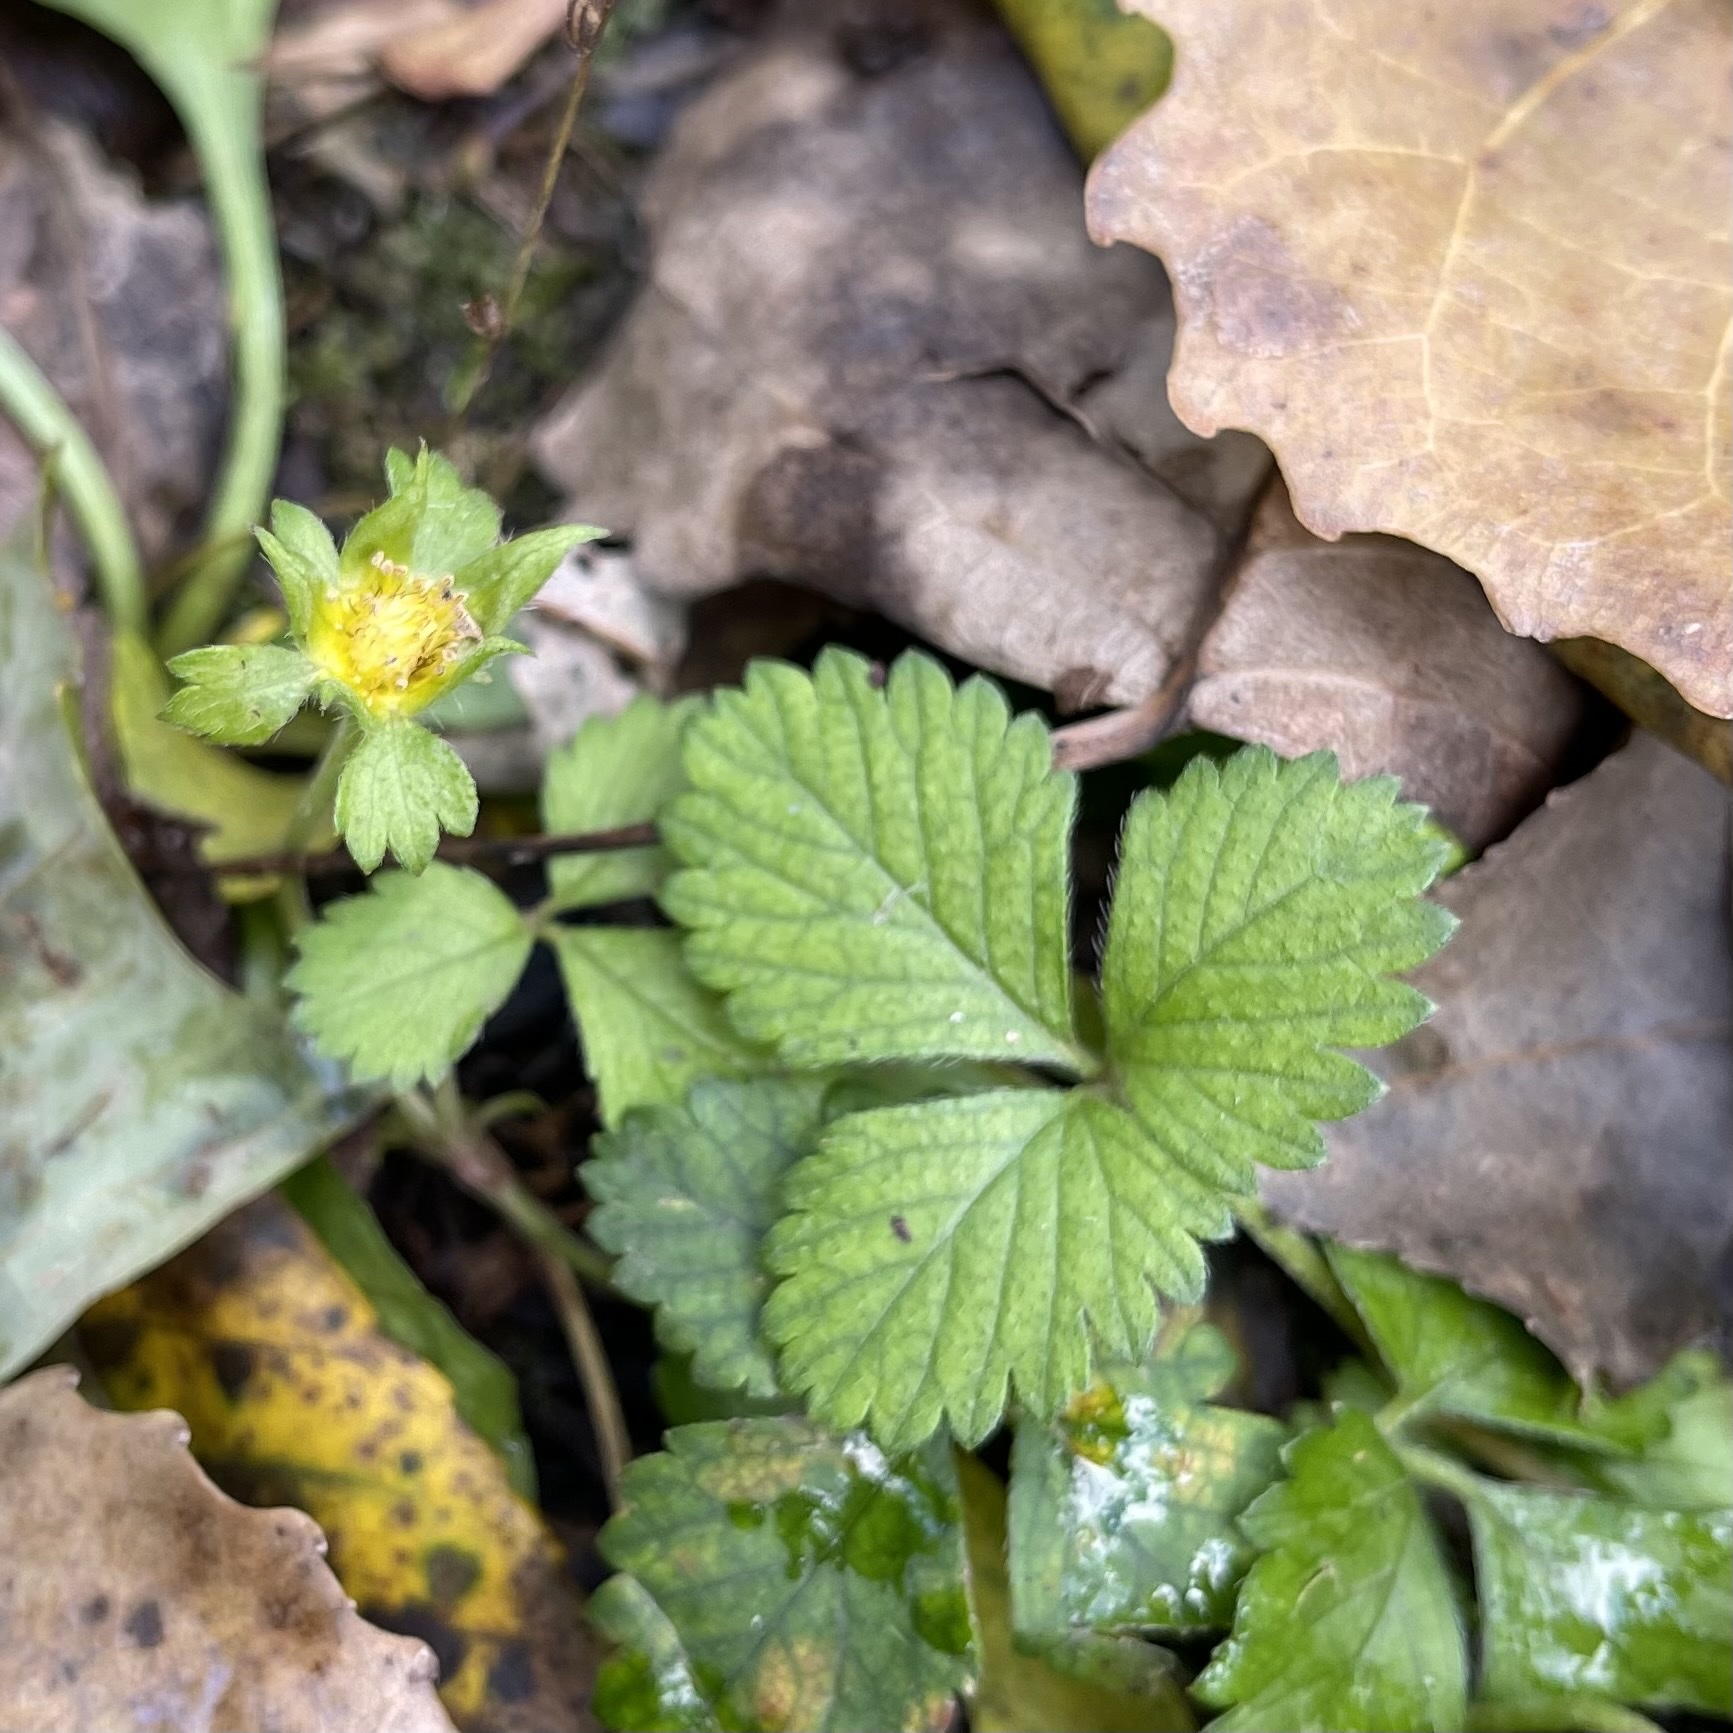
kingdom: Plantae
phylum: Tracheophyta
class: Magnoliopsida
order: Rosales
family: Rosaceae
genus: Potentilla
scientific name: Potentilla indica
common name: Yellow-flowered strawberry
